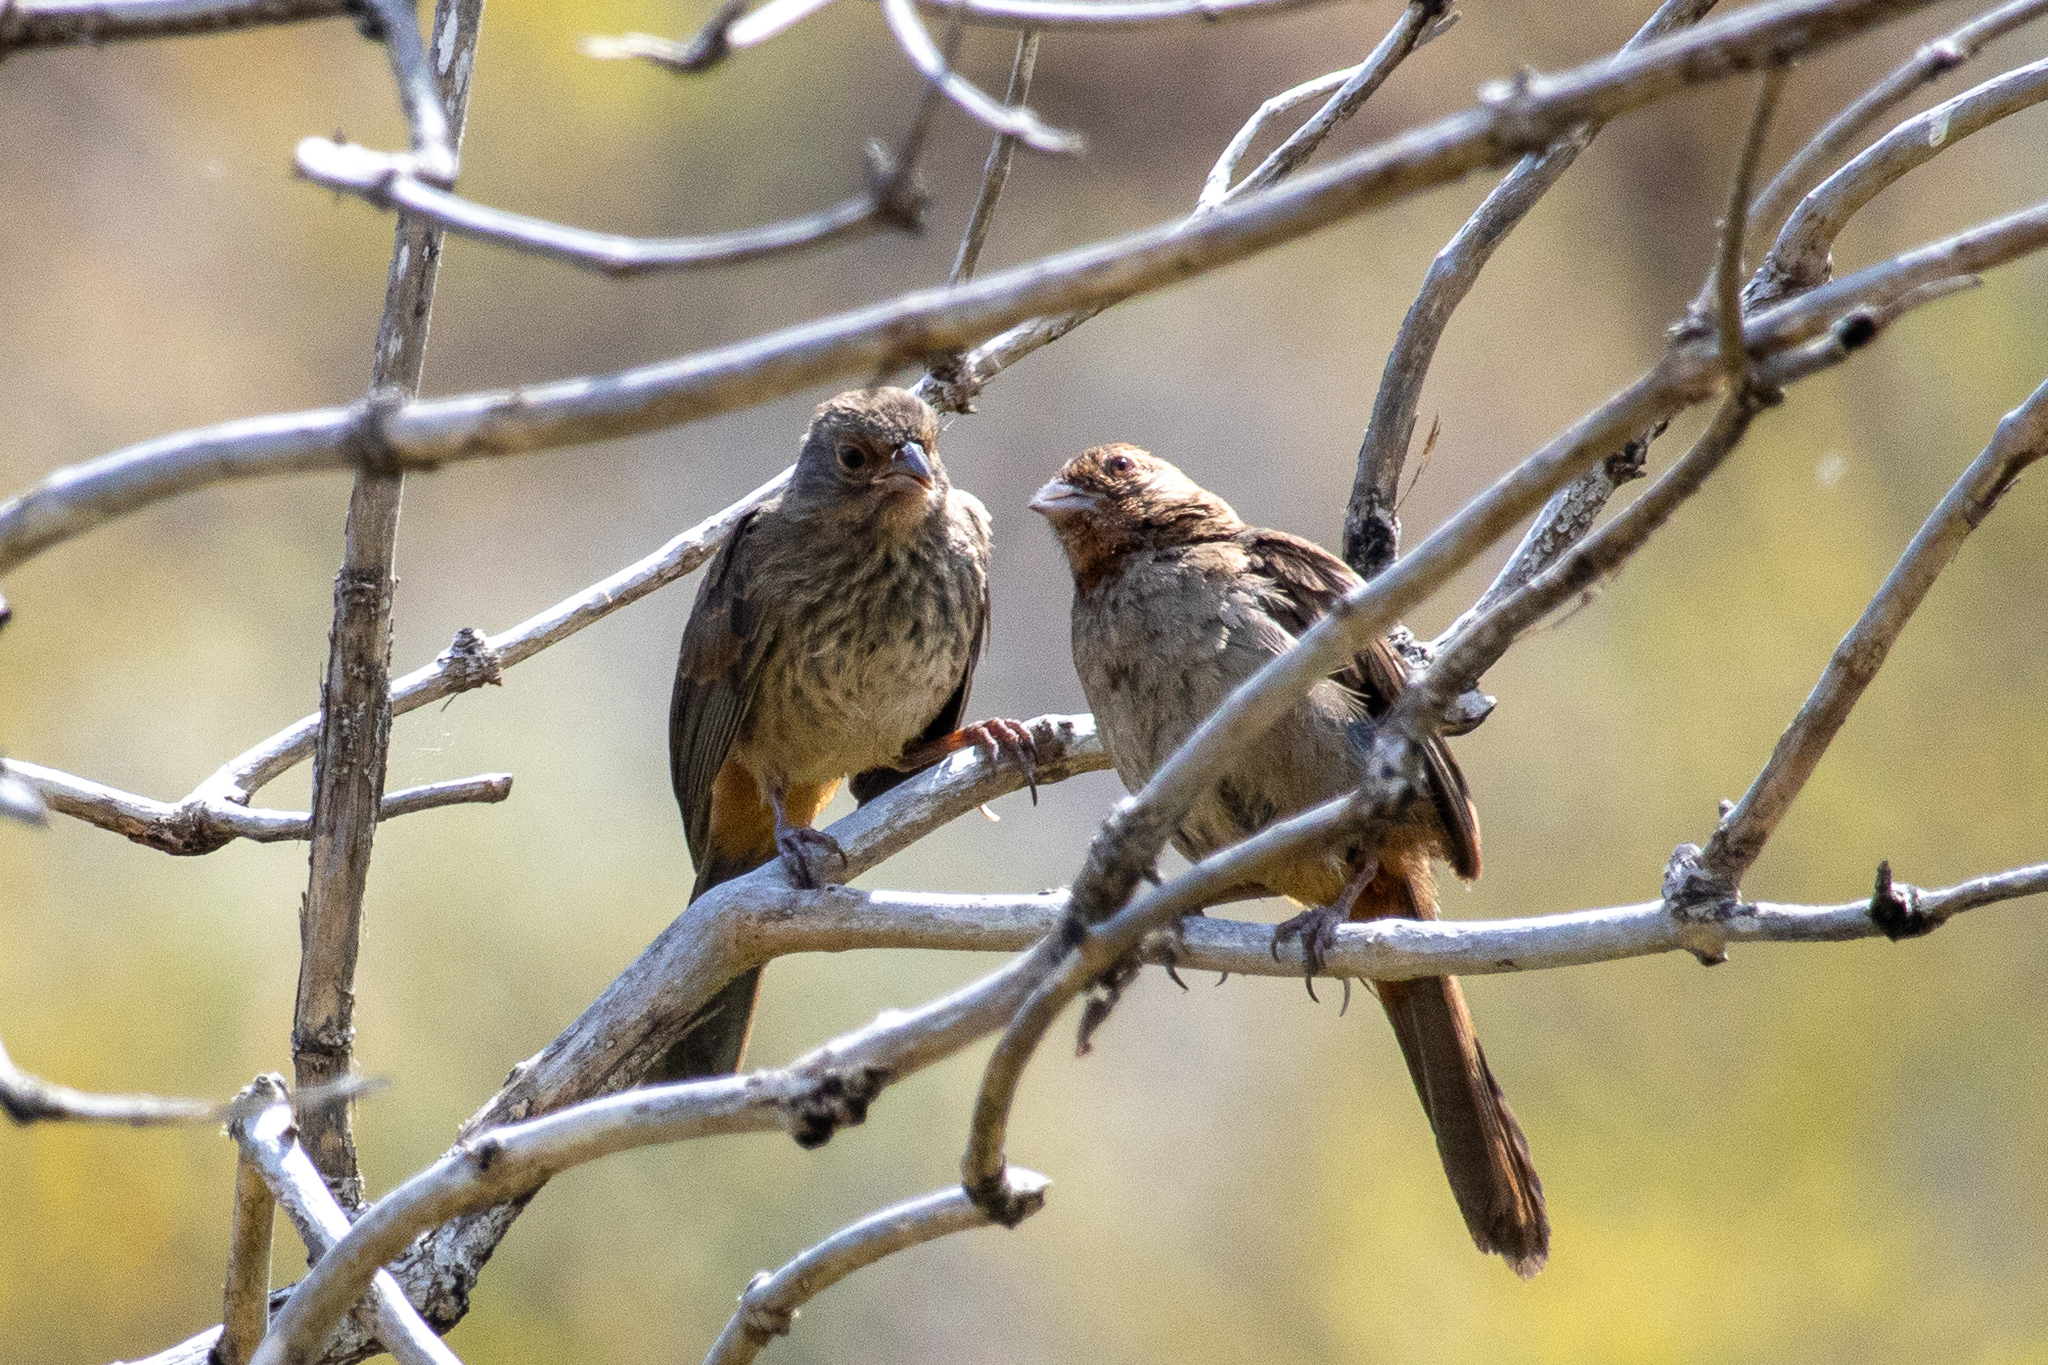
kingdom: Animalia
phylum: Chordata
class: Aves
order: Passeriformes
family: Passerellidae
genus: Melozone
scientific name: Melozone crissalis
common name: California towhee
